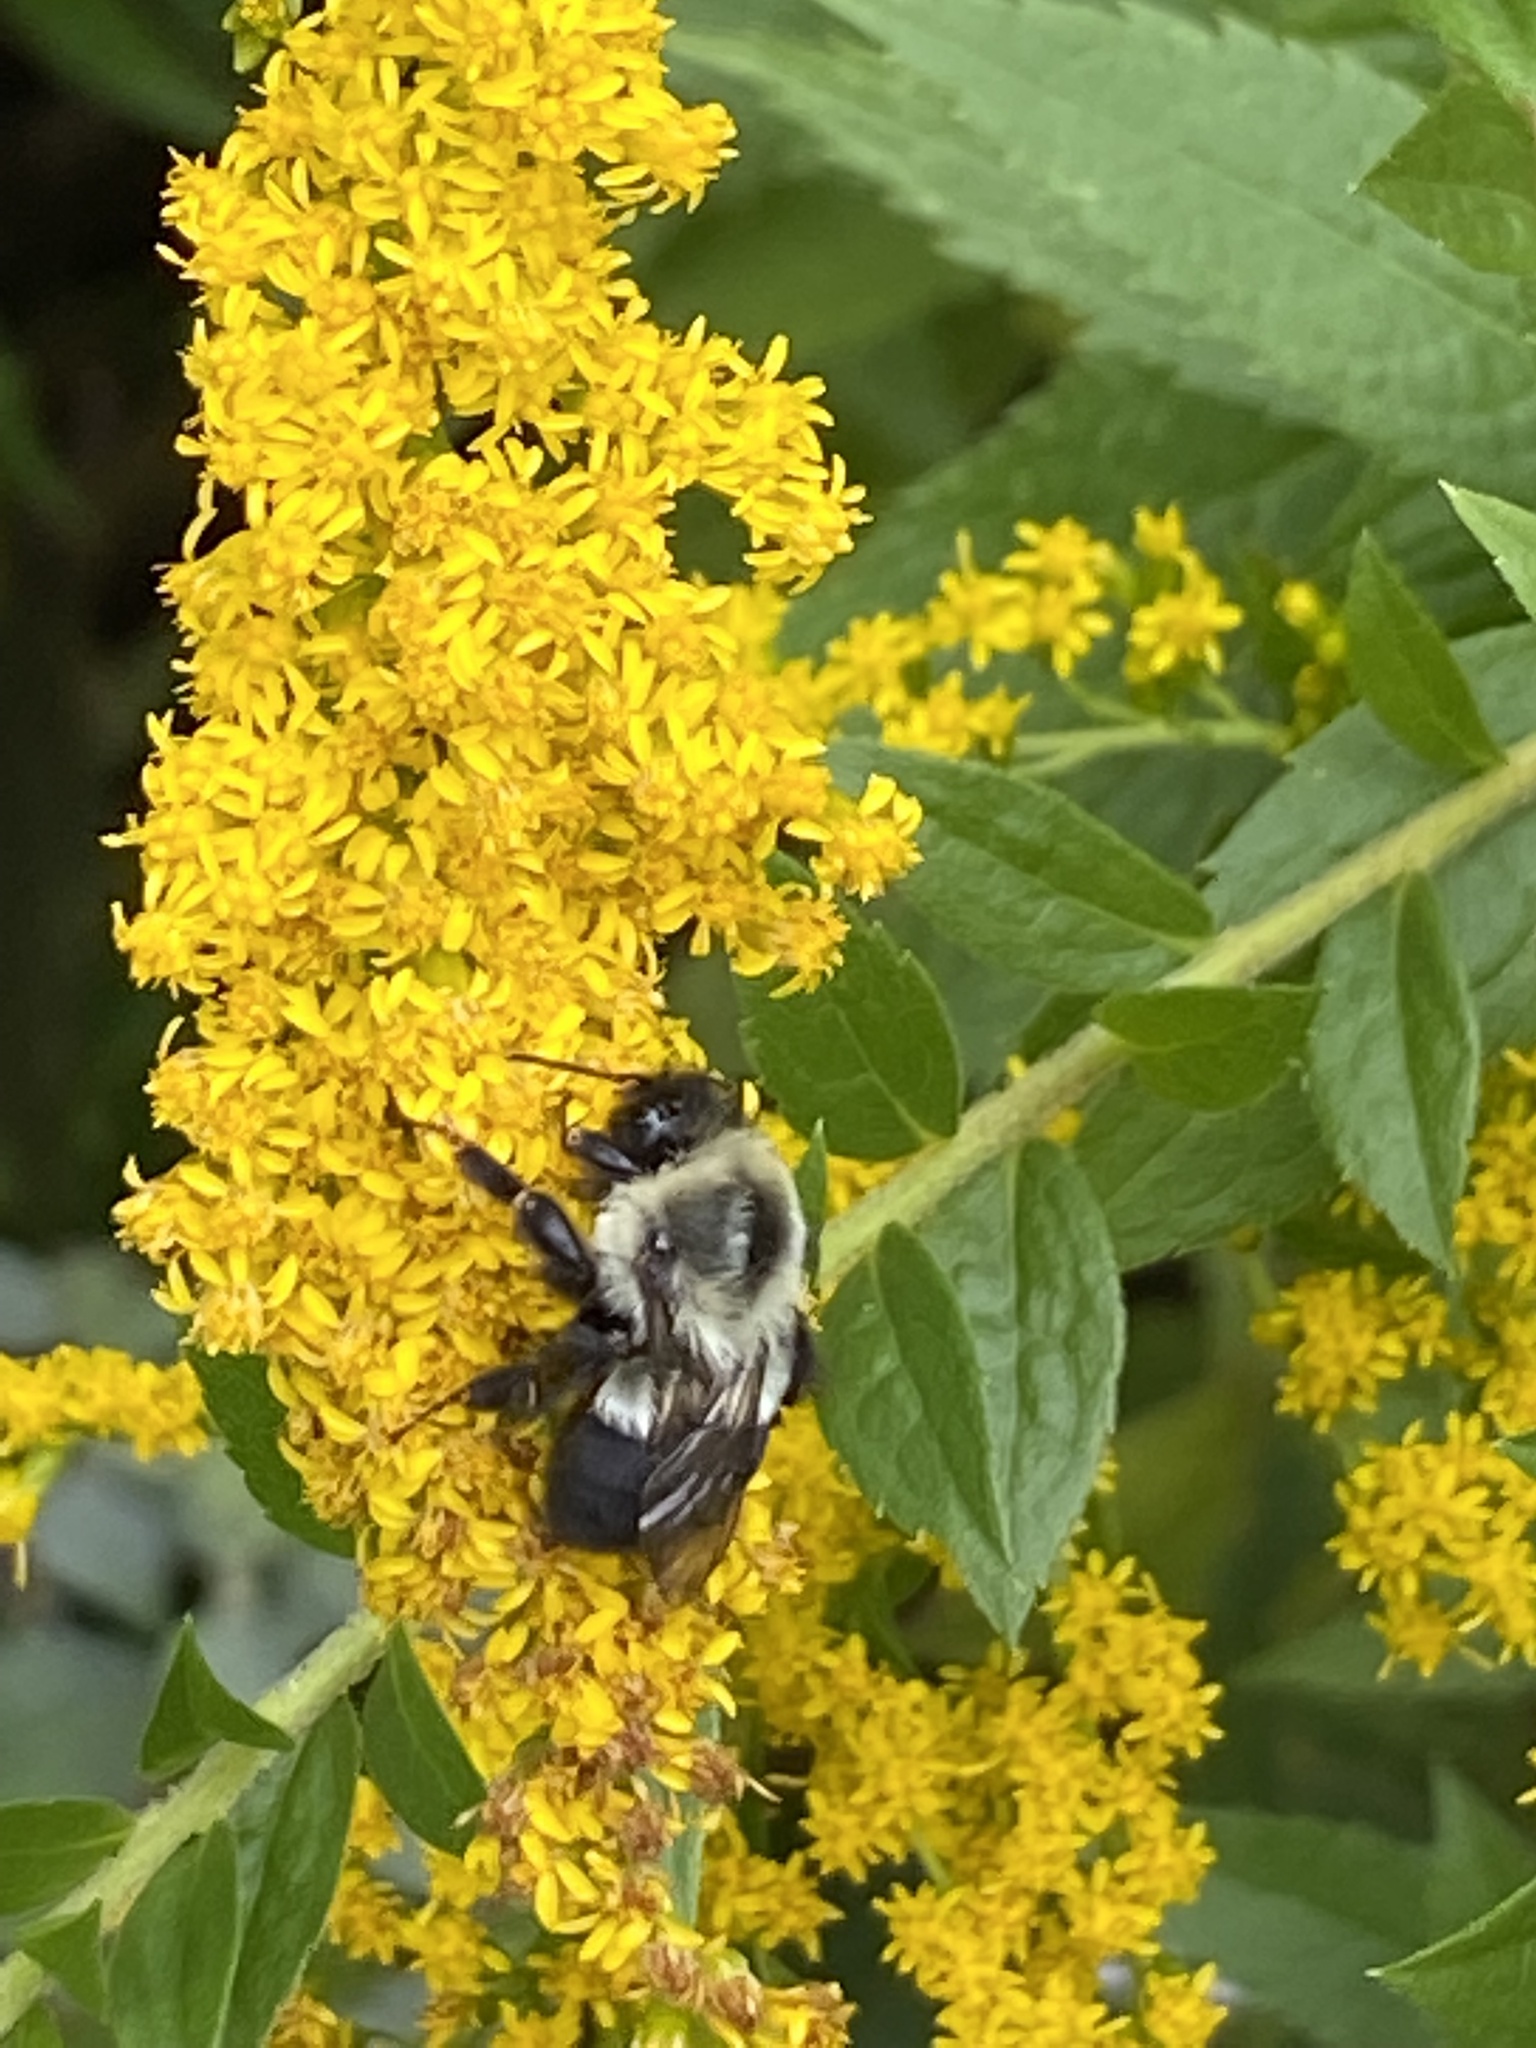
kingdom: Animalia
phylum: Arthropoda
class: Insecta
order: Hymenoptera
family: Apidae
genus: Bombus
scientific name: Bombus impatiens
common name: Common eastern bumble bee
